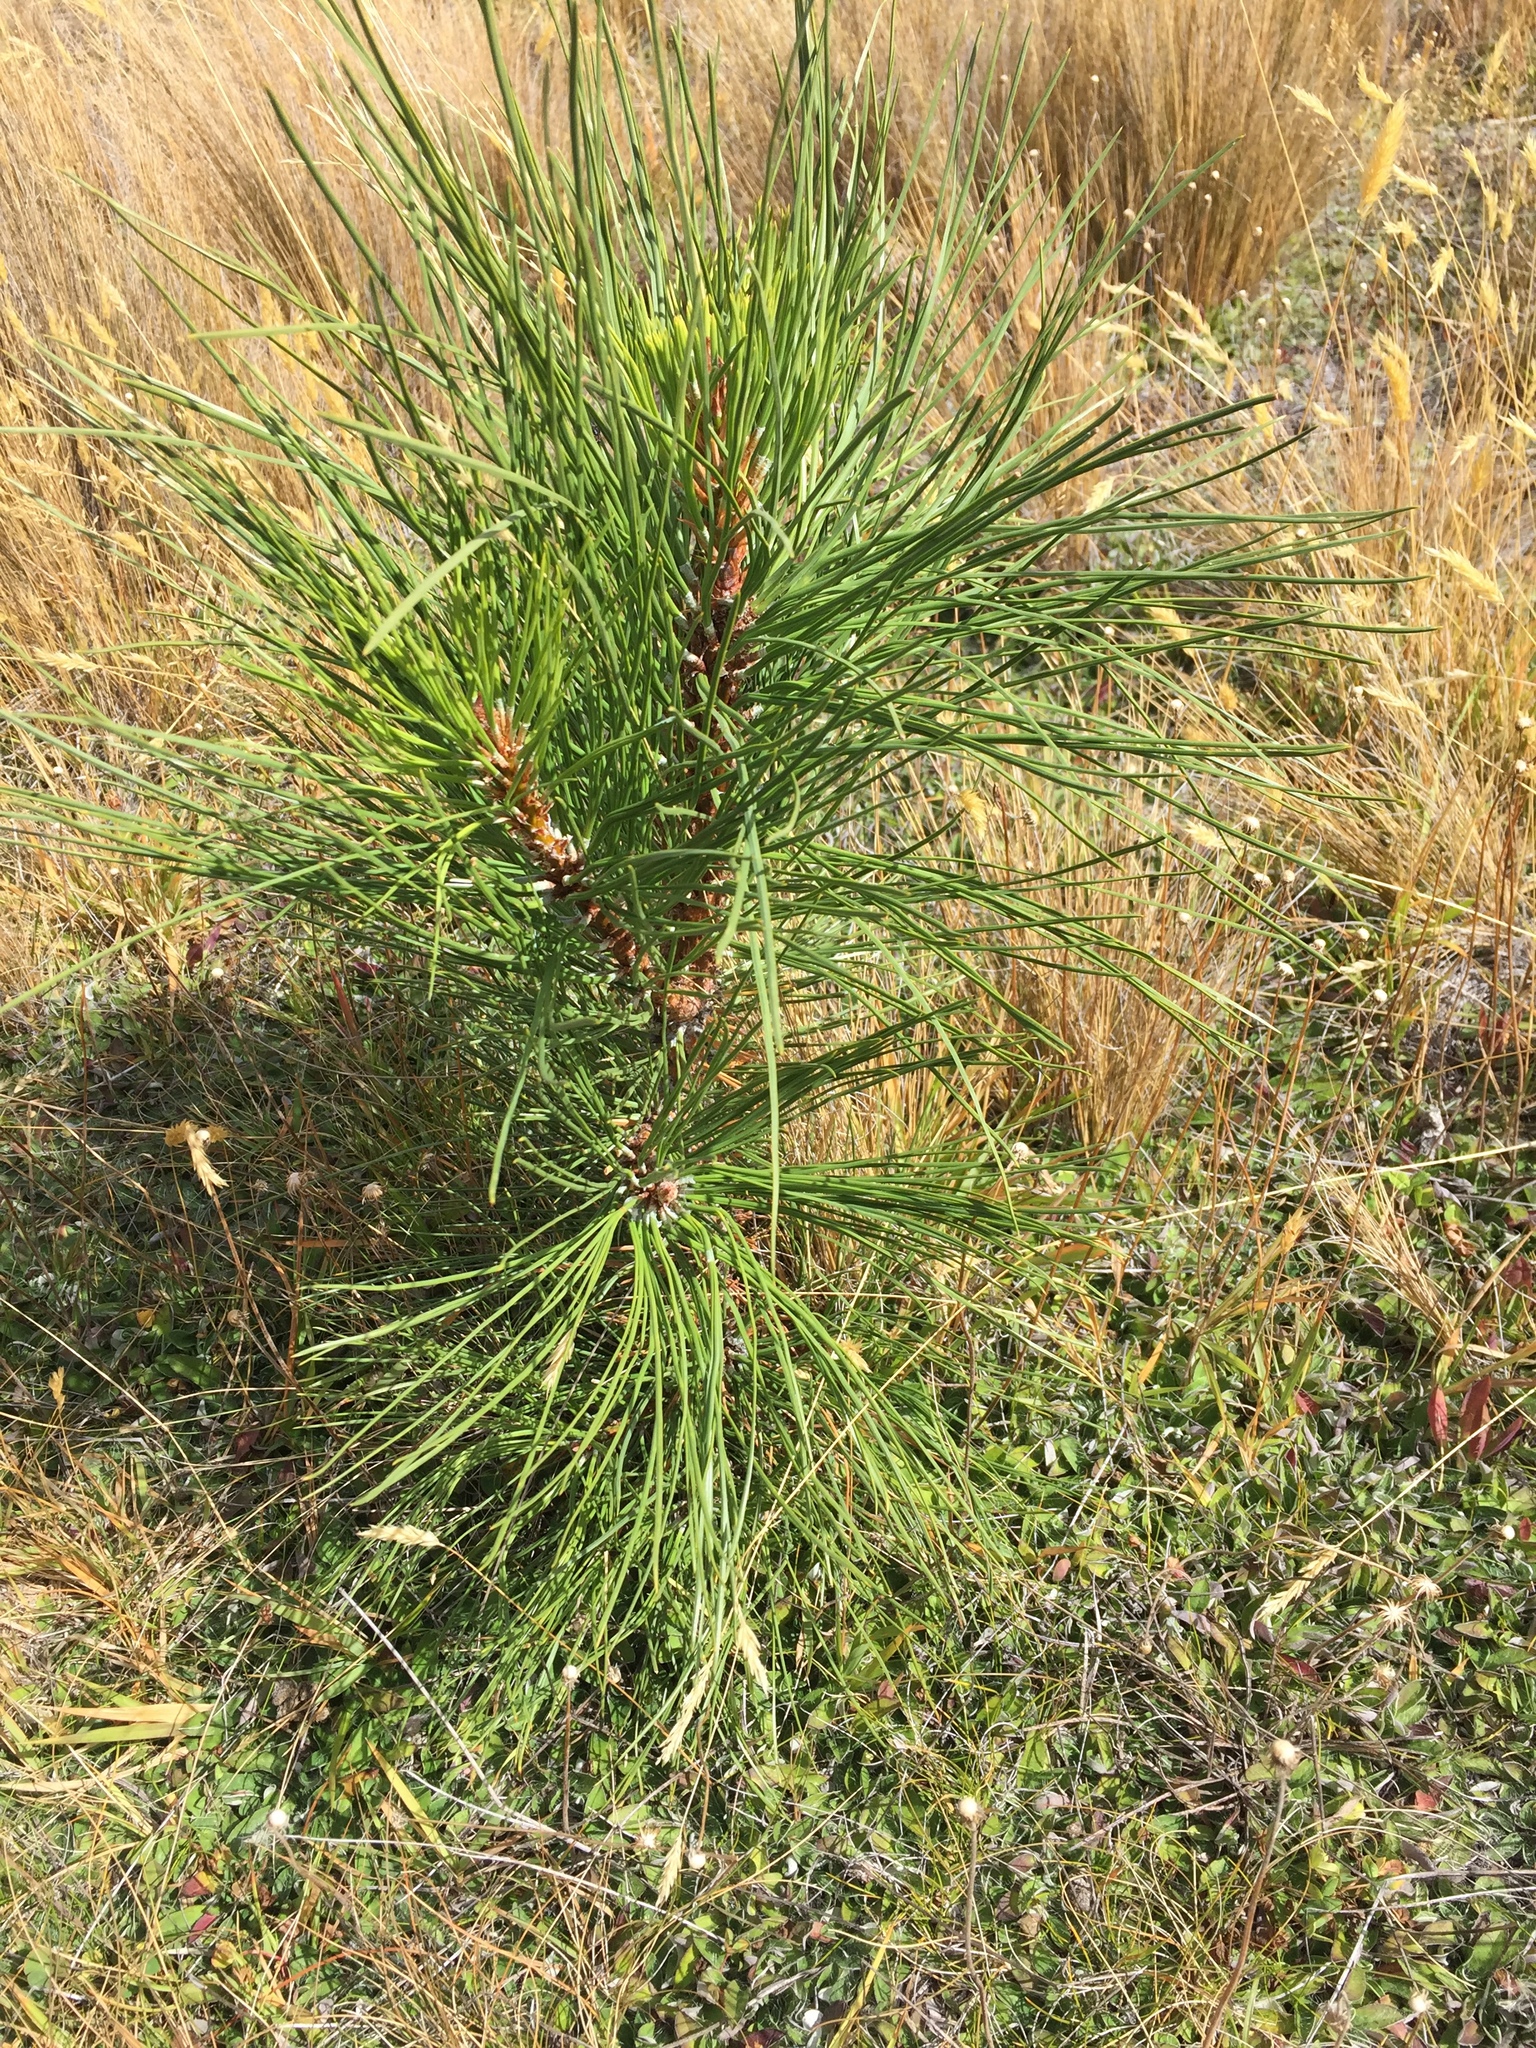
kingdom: Plantae
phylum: Tracheophyta
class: Pinopsida
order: Pinales
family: Pinaceae
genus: Pinus
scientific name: Pinus ponderosa
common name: Western yellow-pine
